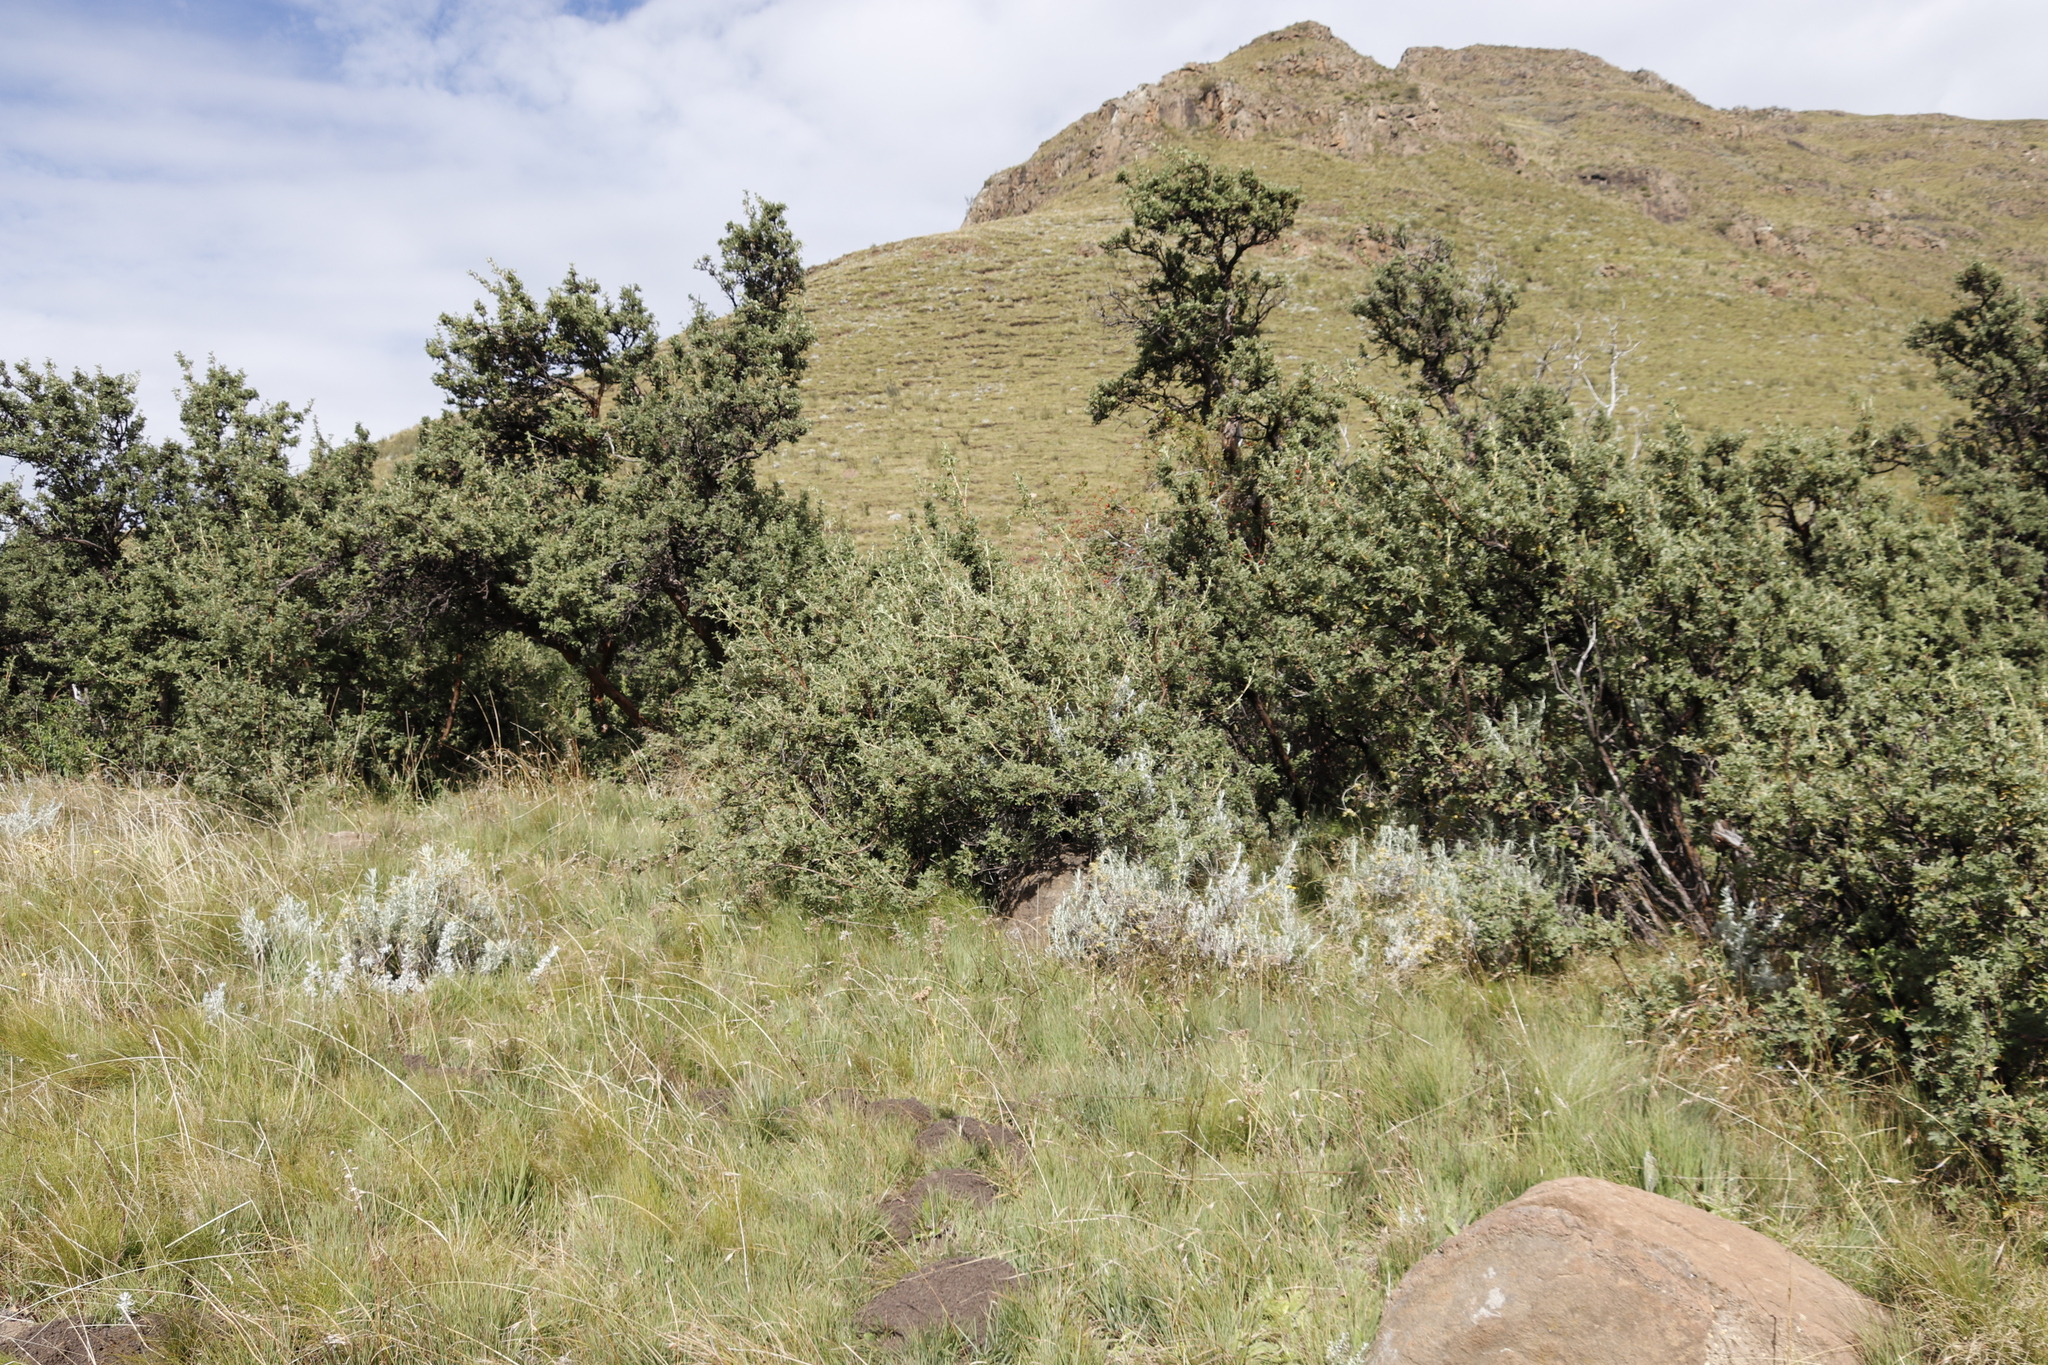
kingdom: Plantae
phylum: Tracheophyta
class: Magnoliopsida
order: Rosales
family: Rosaceae
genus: Leucosidea
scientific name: Leucosidea sericea
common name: Oldwood
